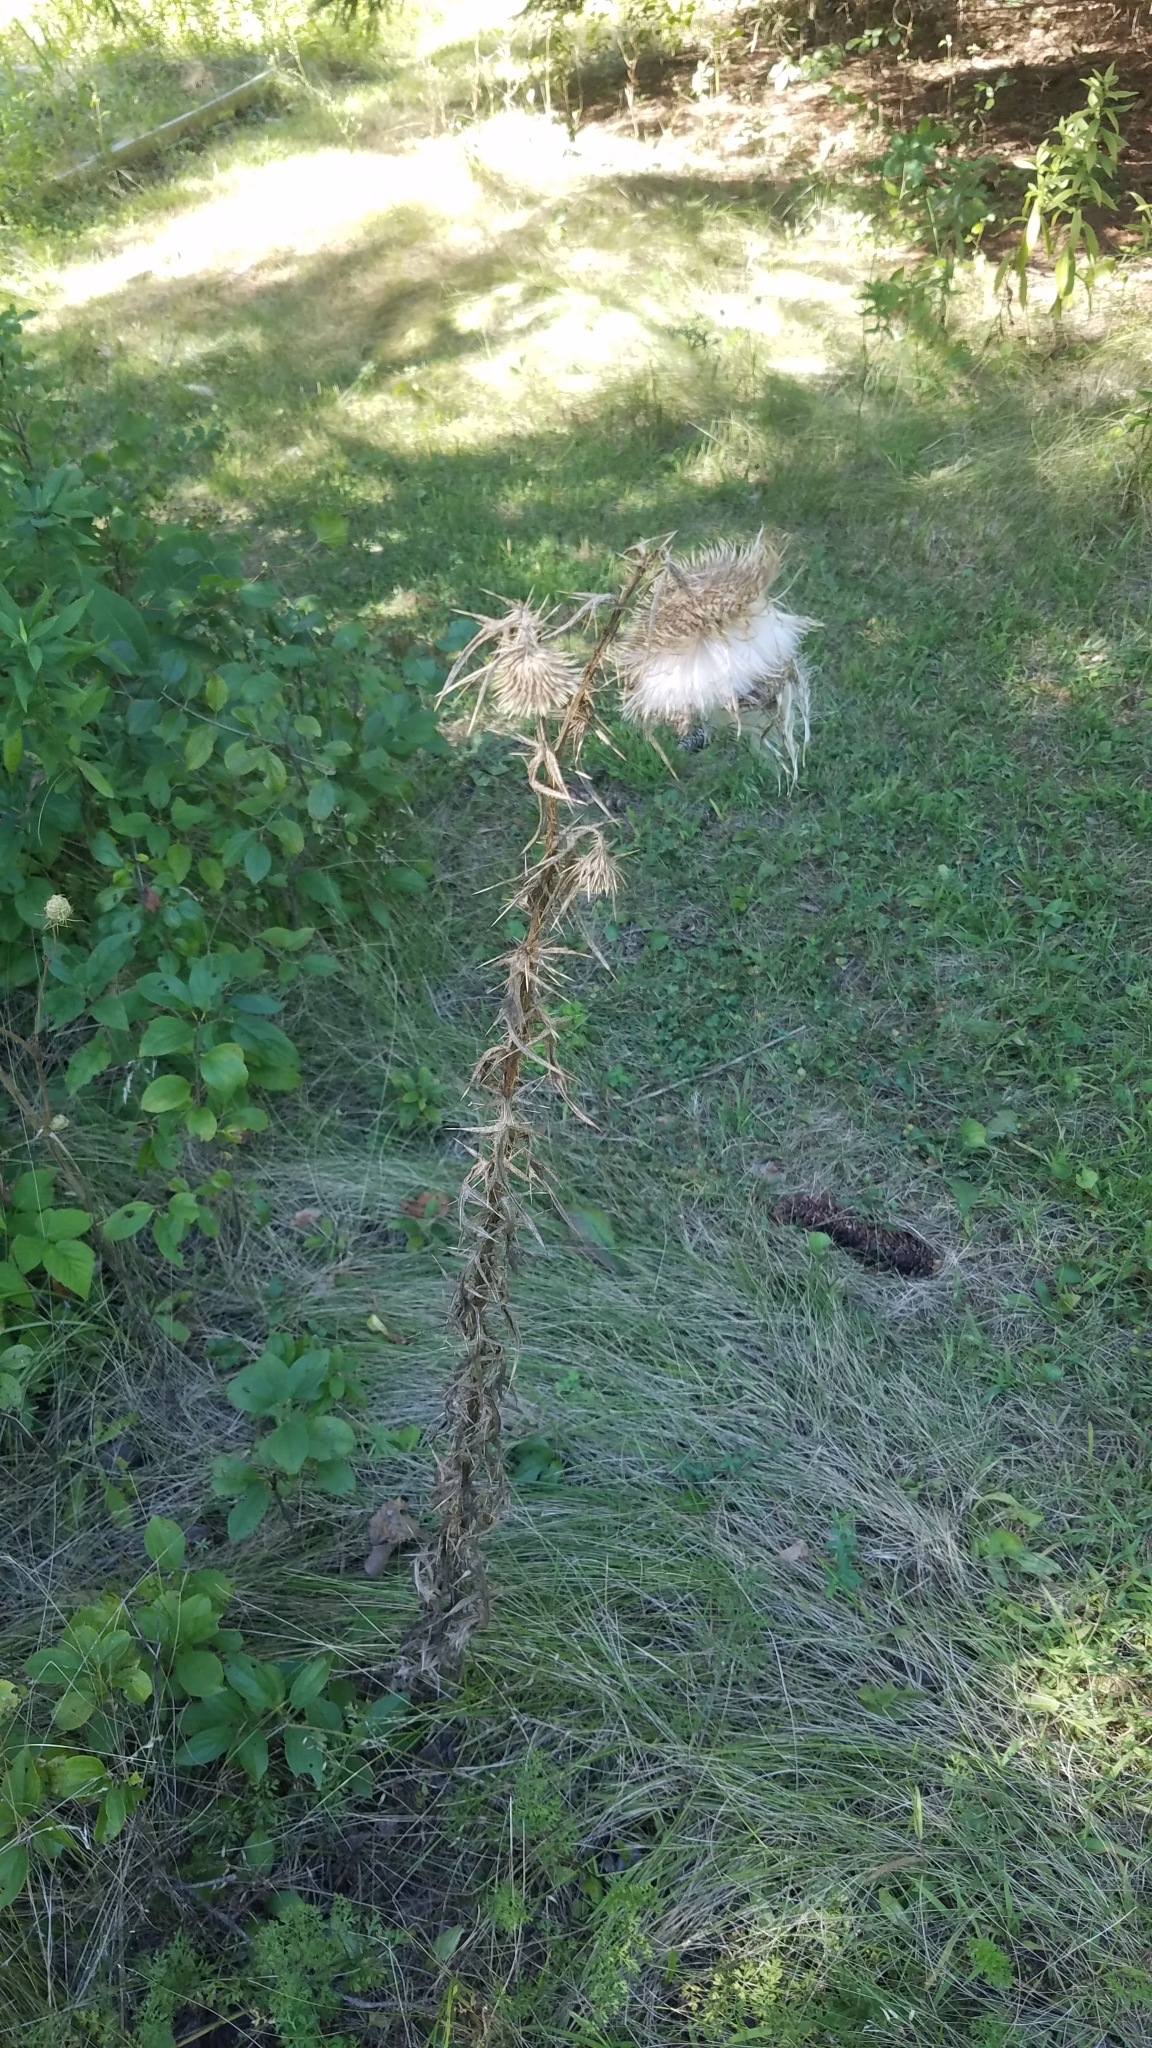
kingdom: Plantae
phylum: Tracheophyta
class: Magnoliopsida
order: Asterales
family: Asteraceae
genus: Cirsium
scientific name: Cirsium vulgare
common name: Bull thistle
